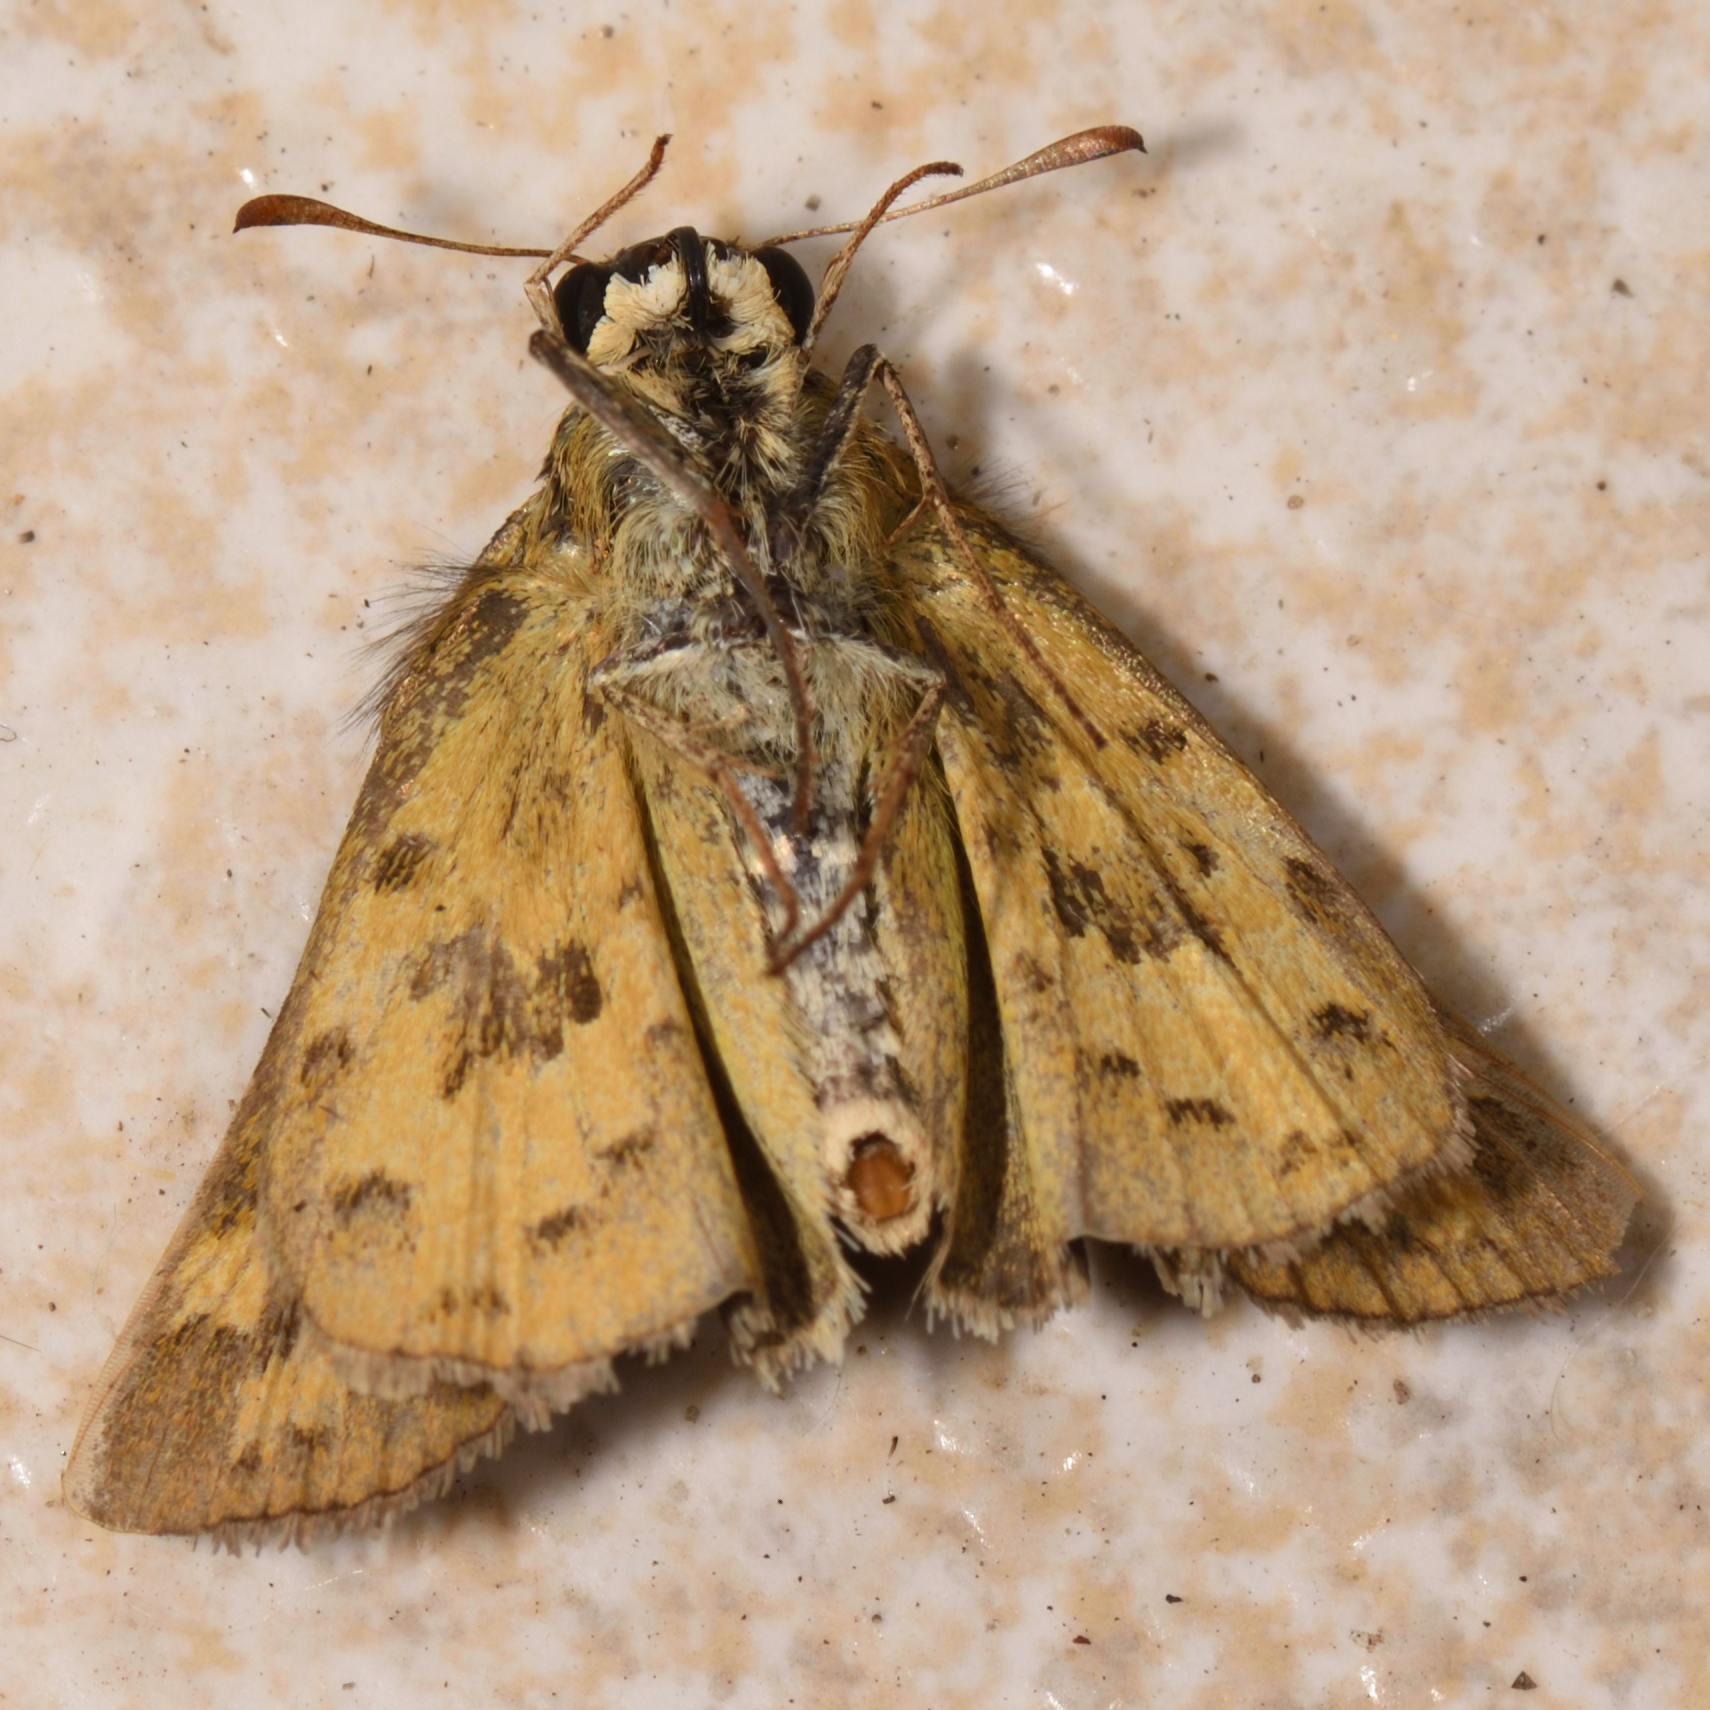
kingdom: Animalia
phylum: Arthropoda
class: Insecta
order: Lepidoptera
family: Hesperiidae
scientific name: Hesperiidae
